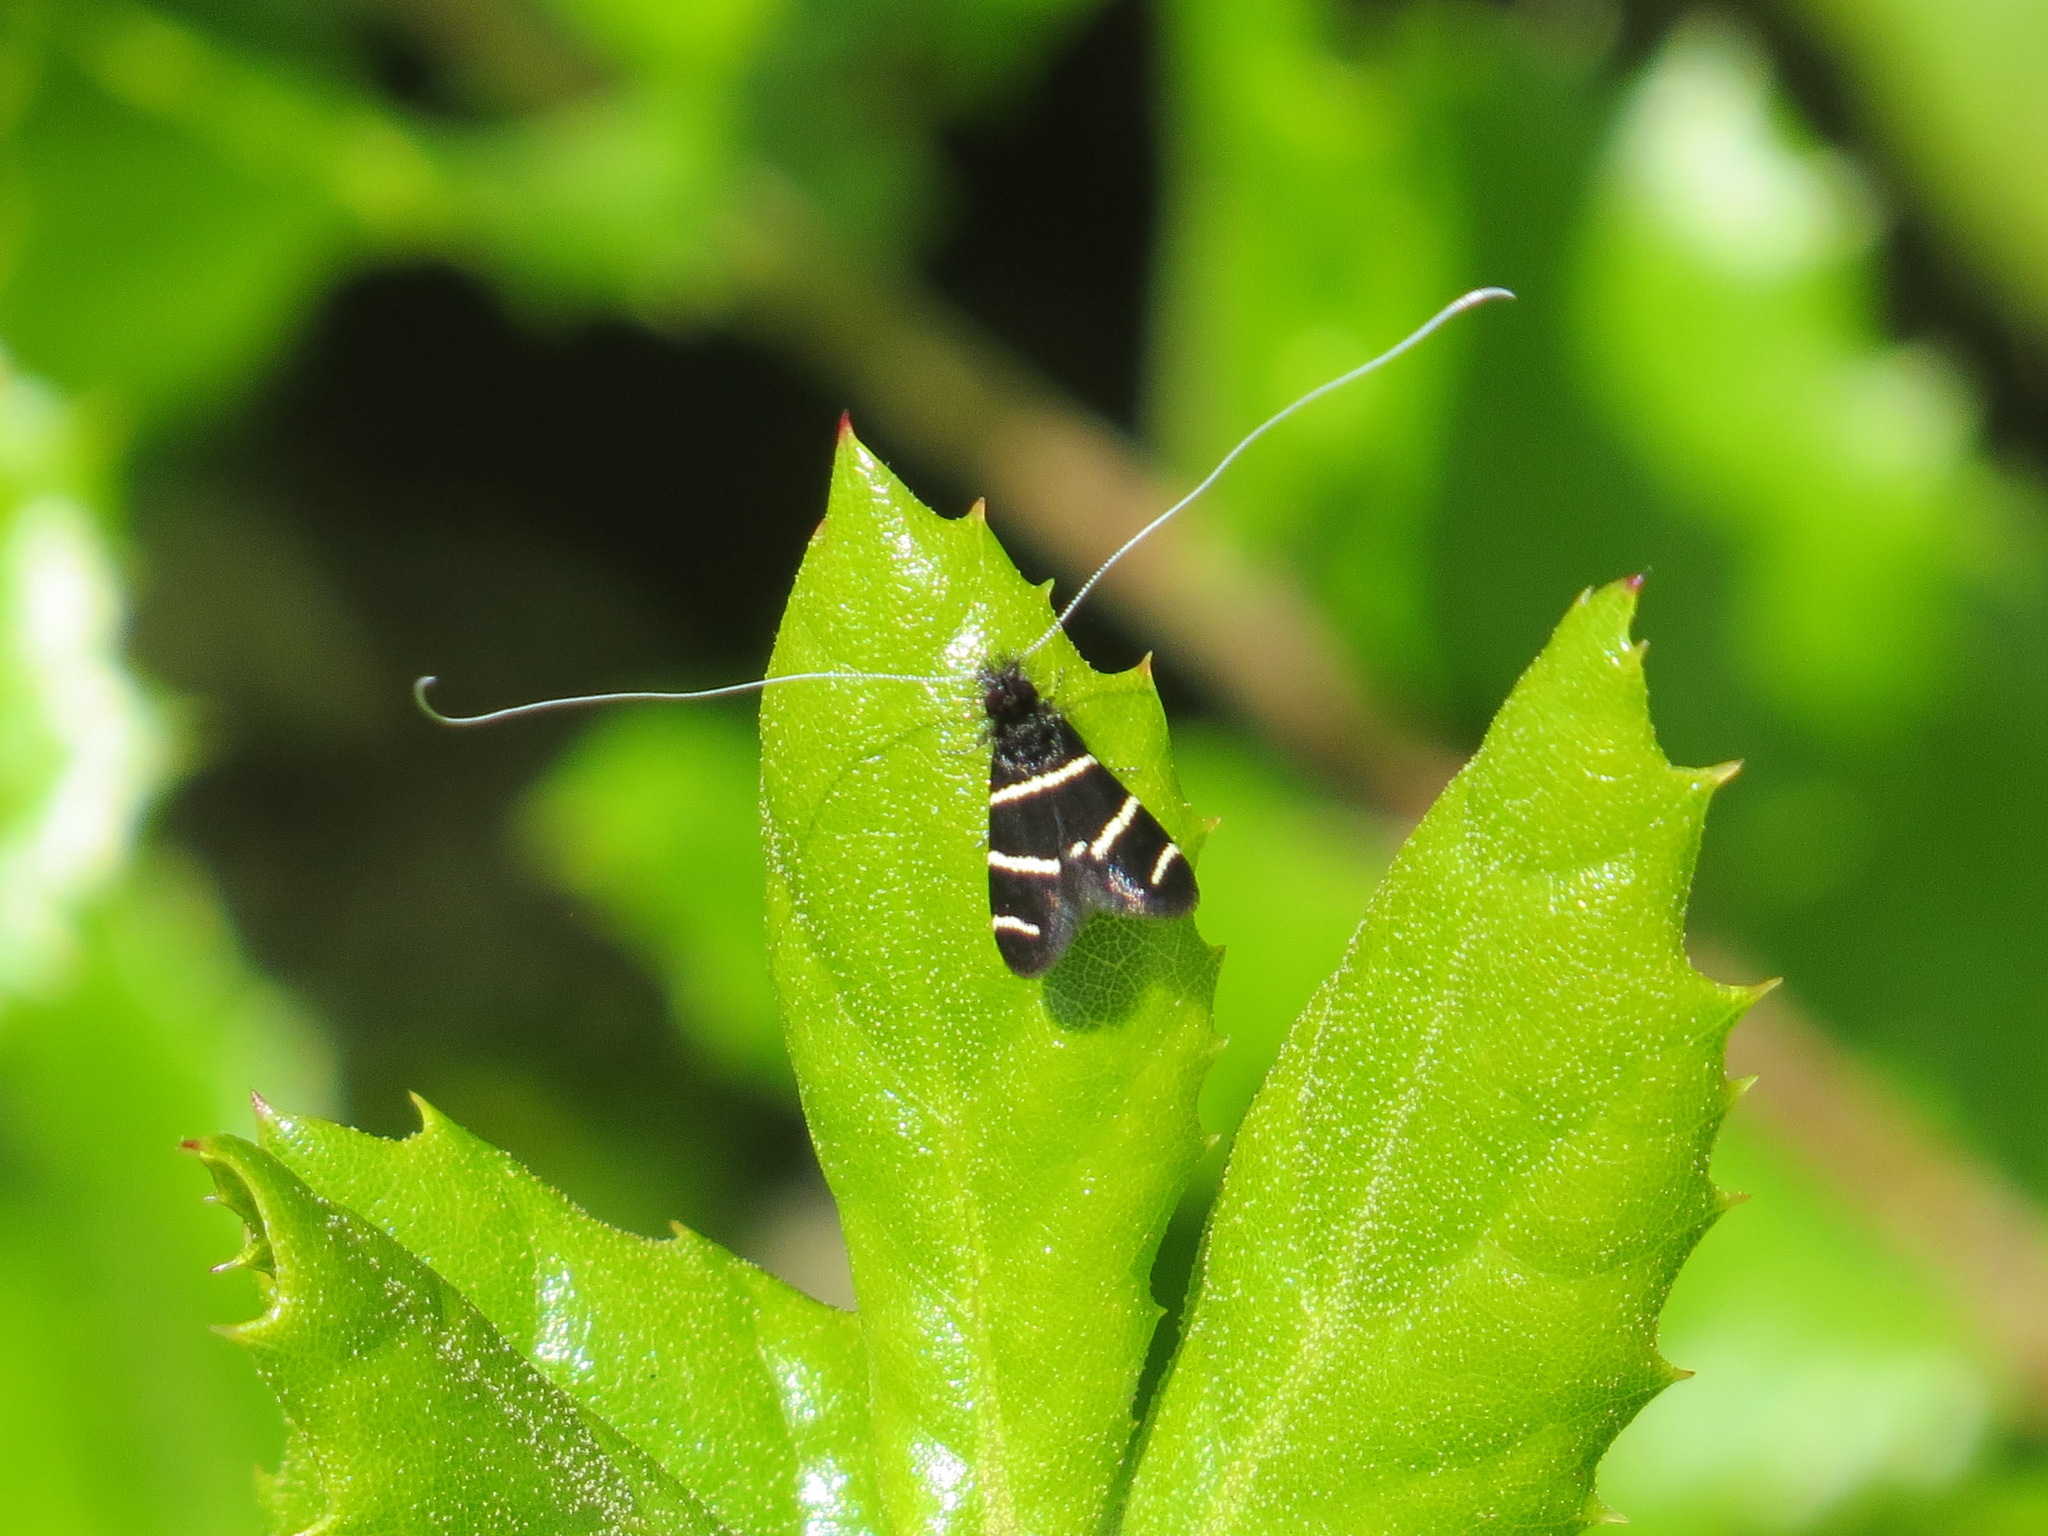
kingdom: Animalia
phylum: Arthropoda
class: Insecta
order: Lepidoptera
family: Adelidae
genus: Adela
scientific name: Adela trigrapha
